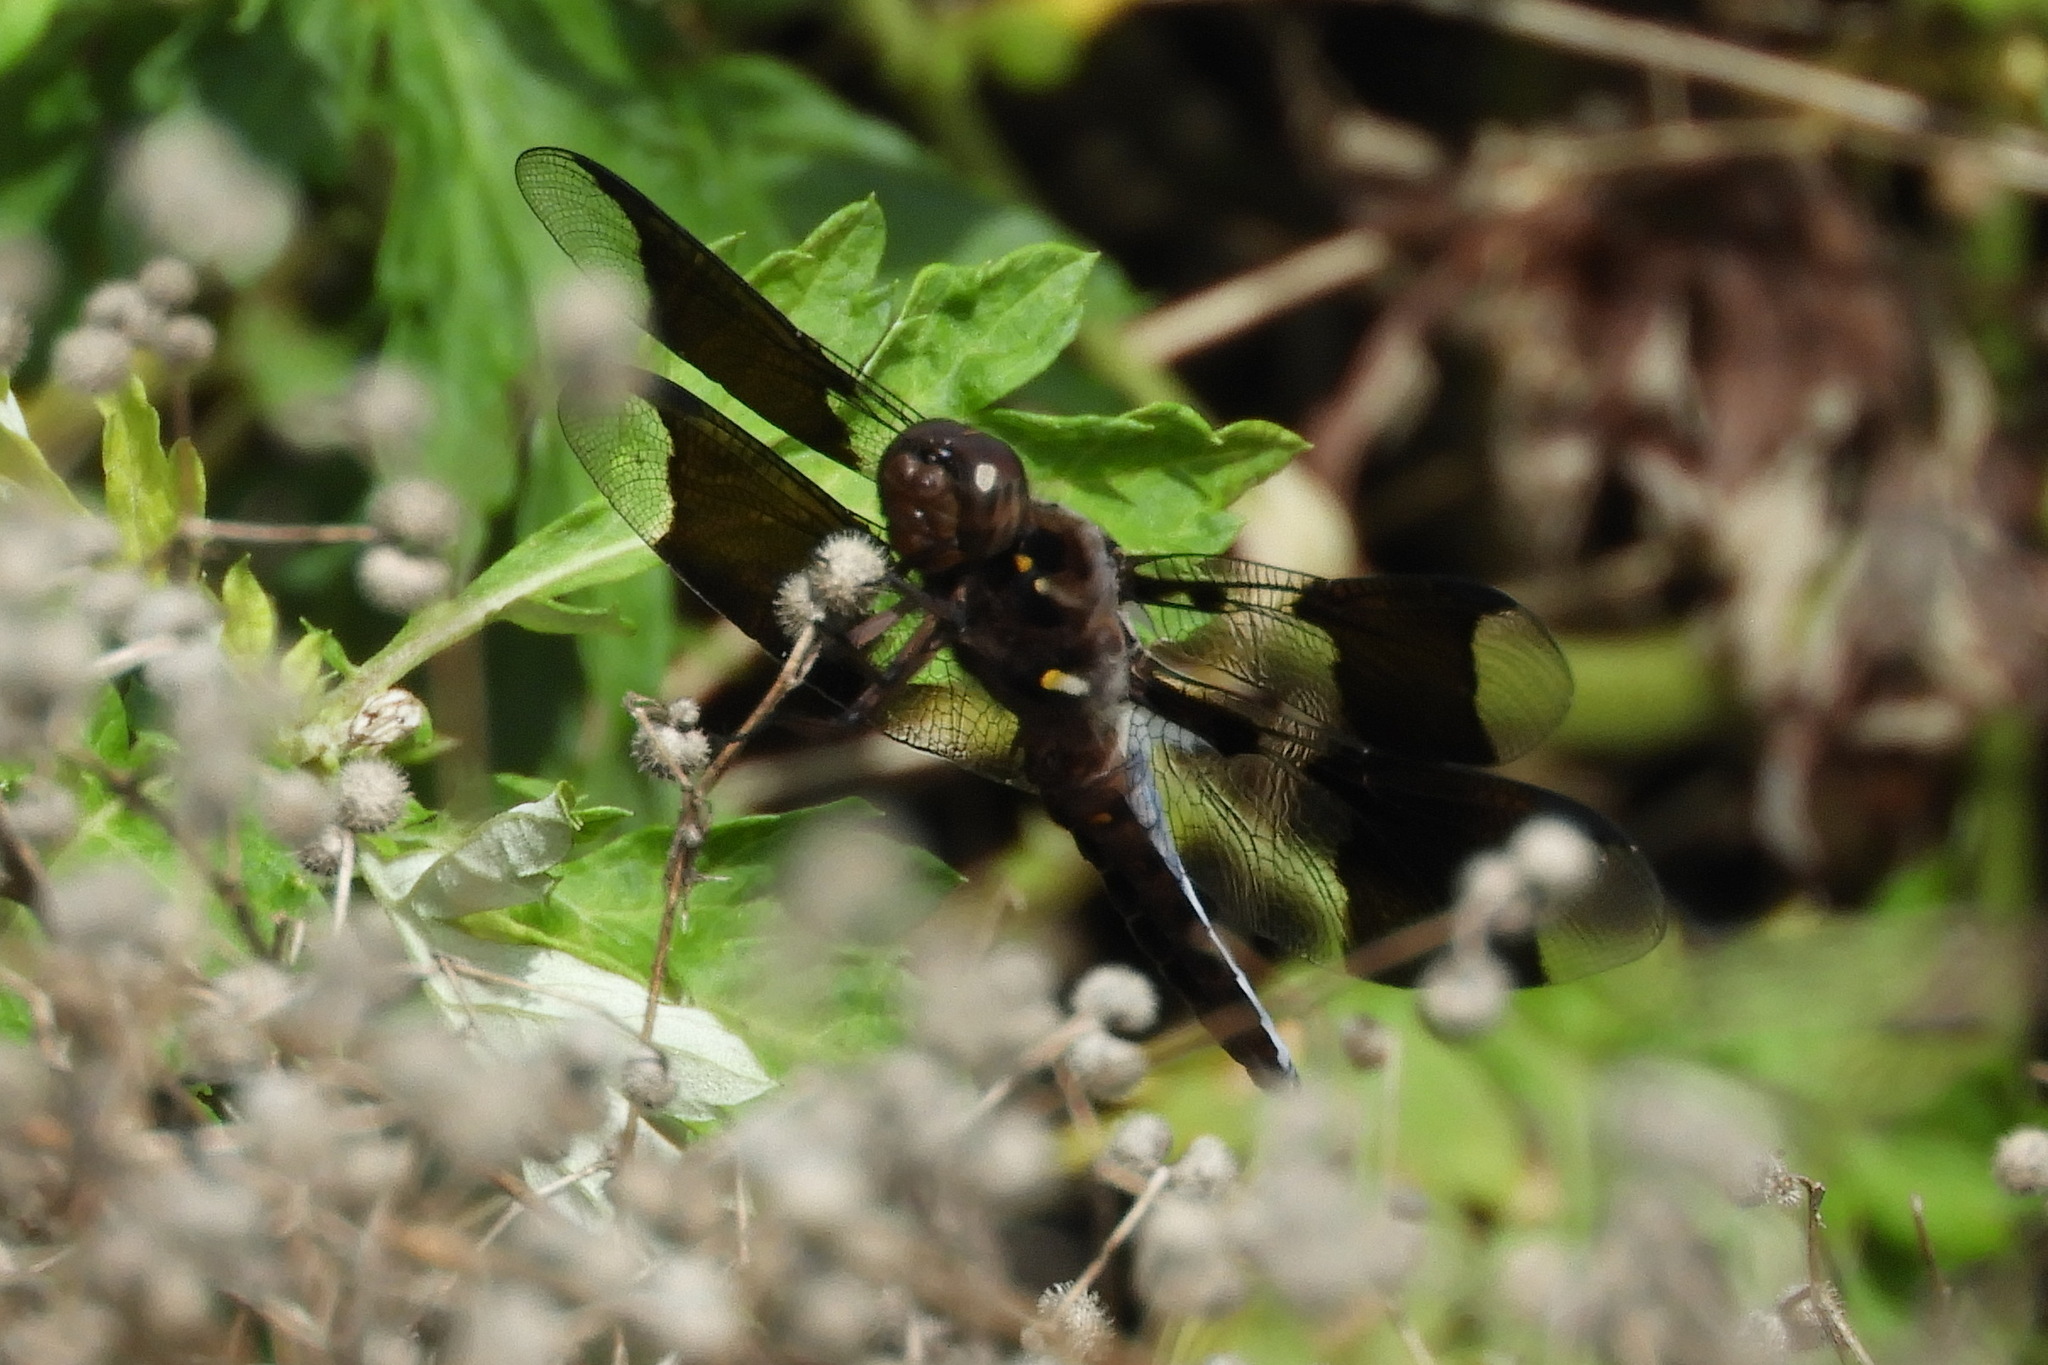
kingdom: Animalia
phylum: Arthropoda
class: Insecta
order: Odonata
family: Libellulidae
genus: Plathemis
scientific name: Plathemis lydia
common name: Common whitetail
